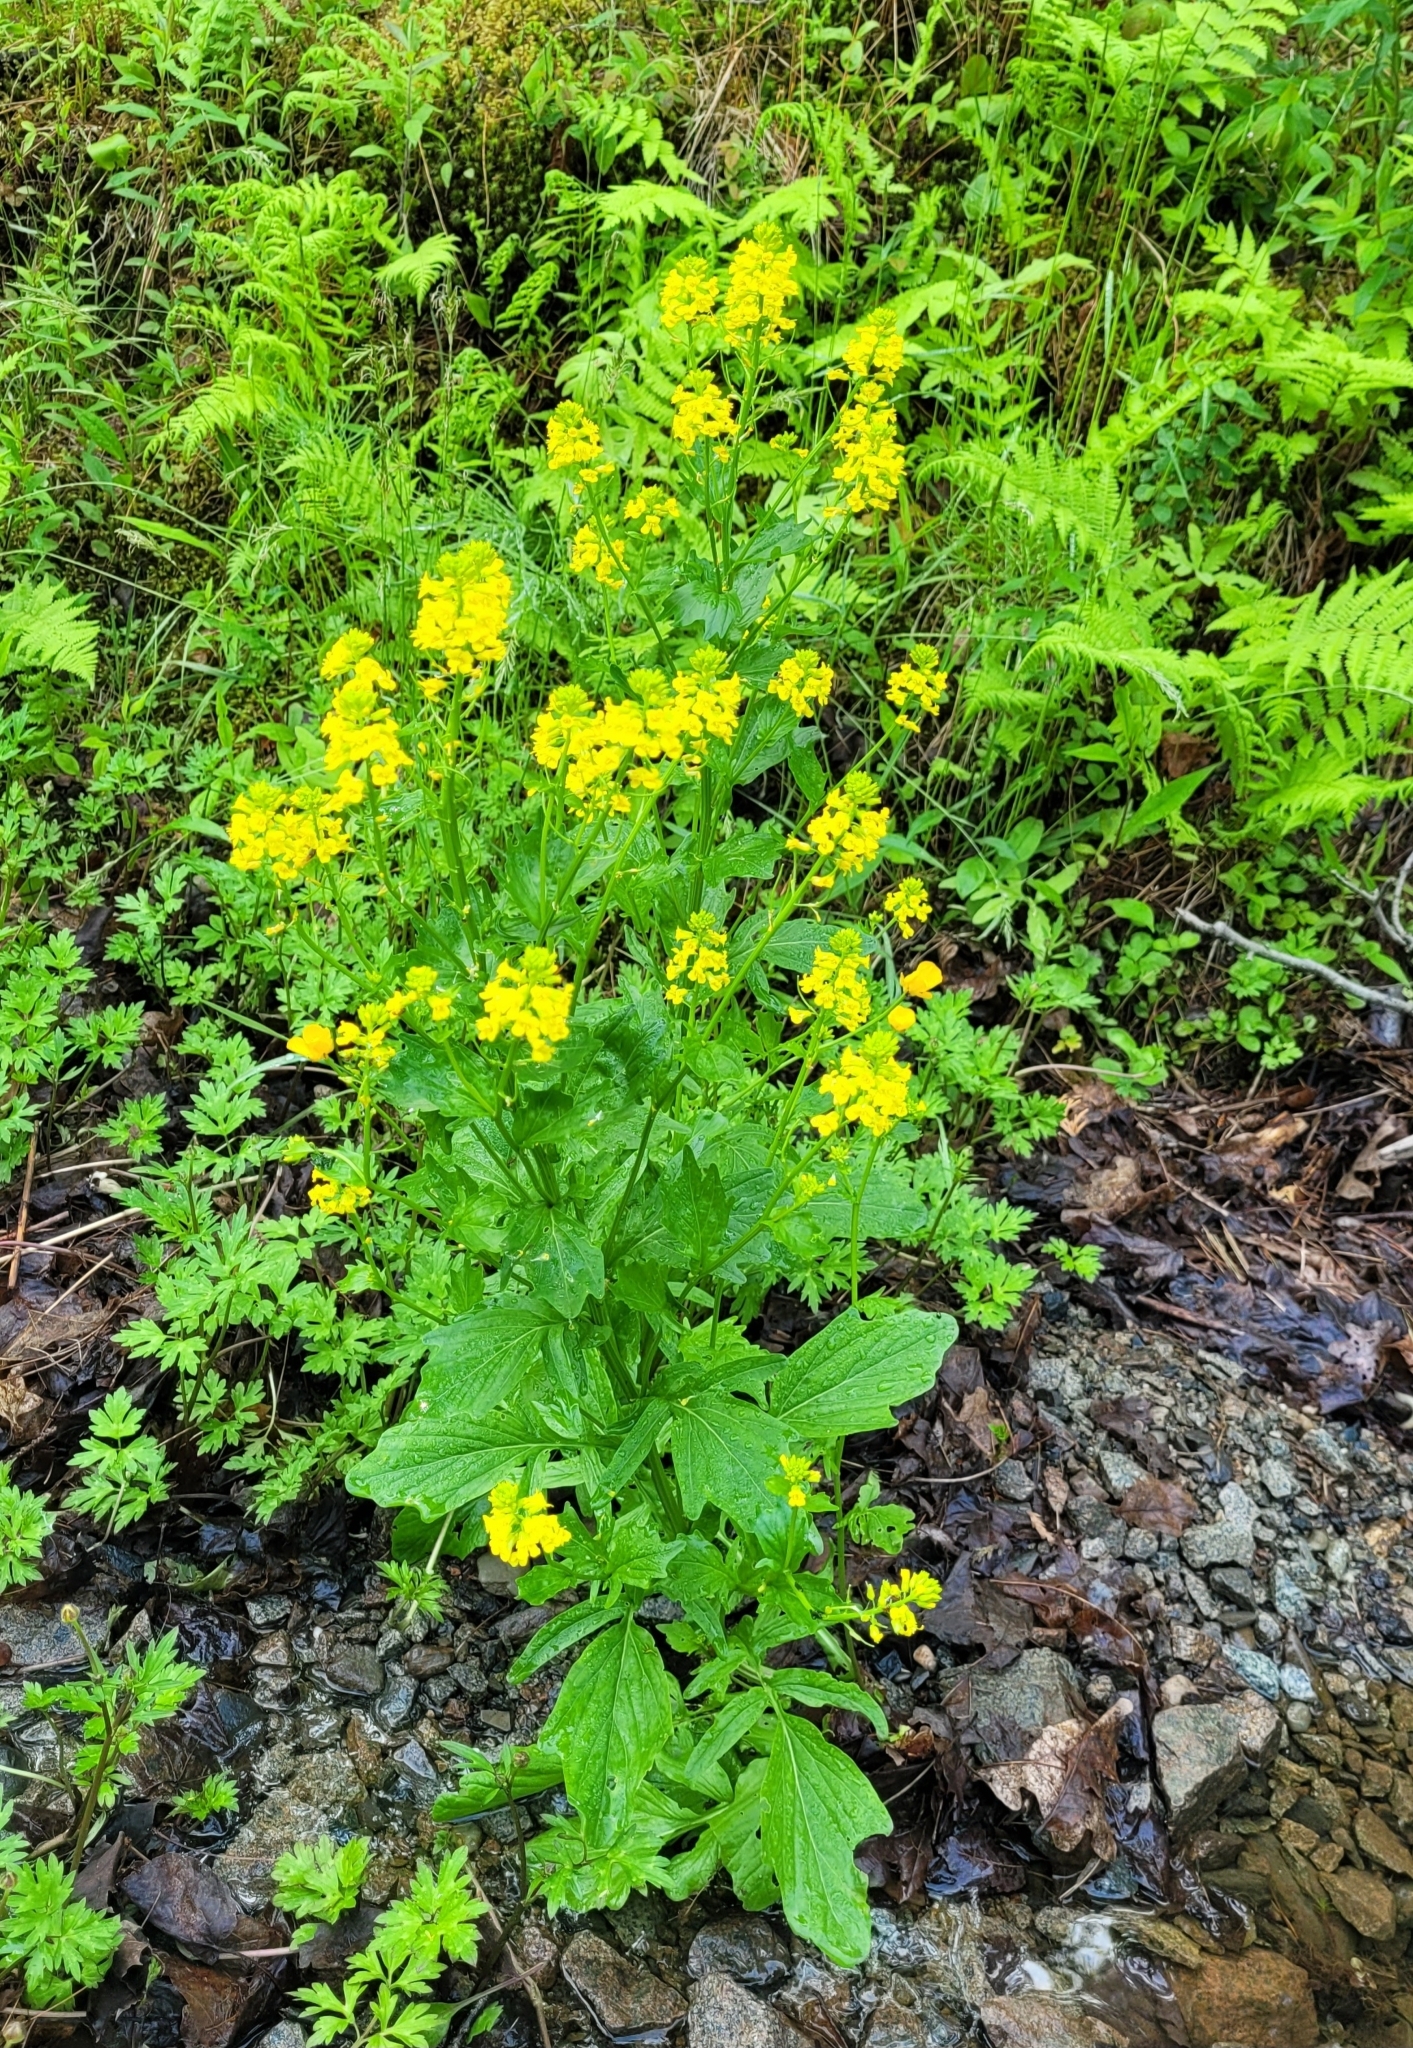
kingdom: Plantae
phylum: Tracheophyta
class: Magnoliopsida
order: Brassicales
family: Brassicaceae
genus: Barbarea
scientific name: Barbarea vulgaris
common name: Cressy-greens
